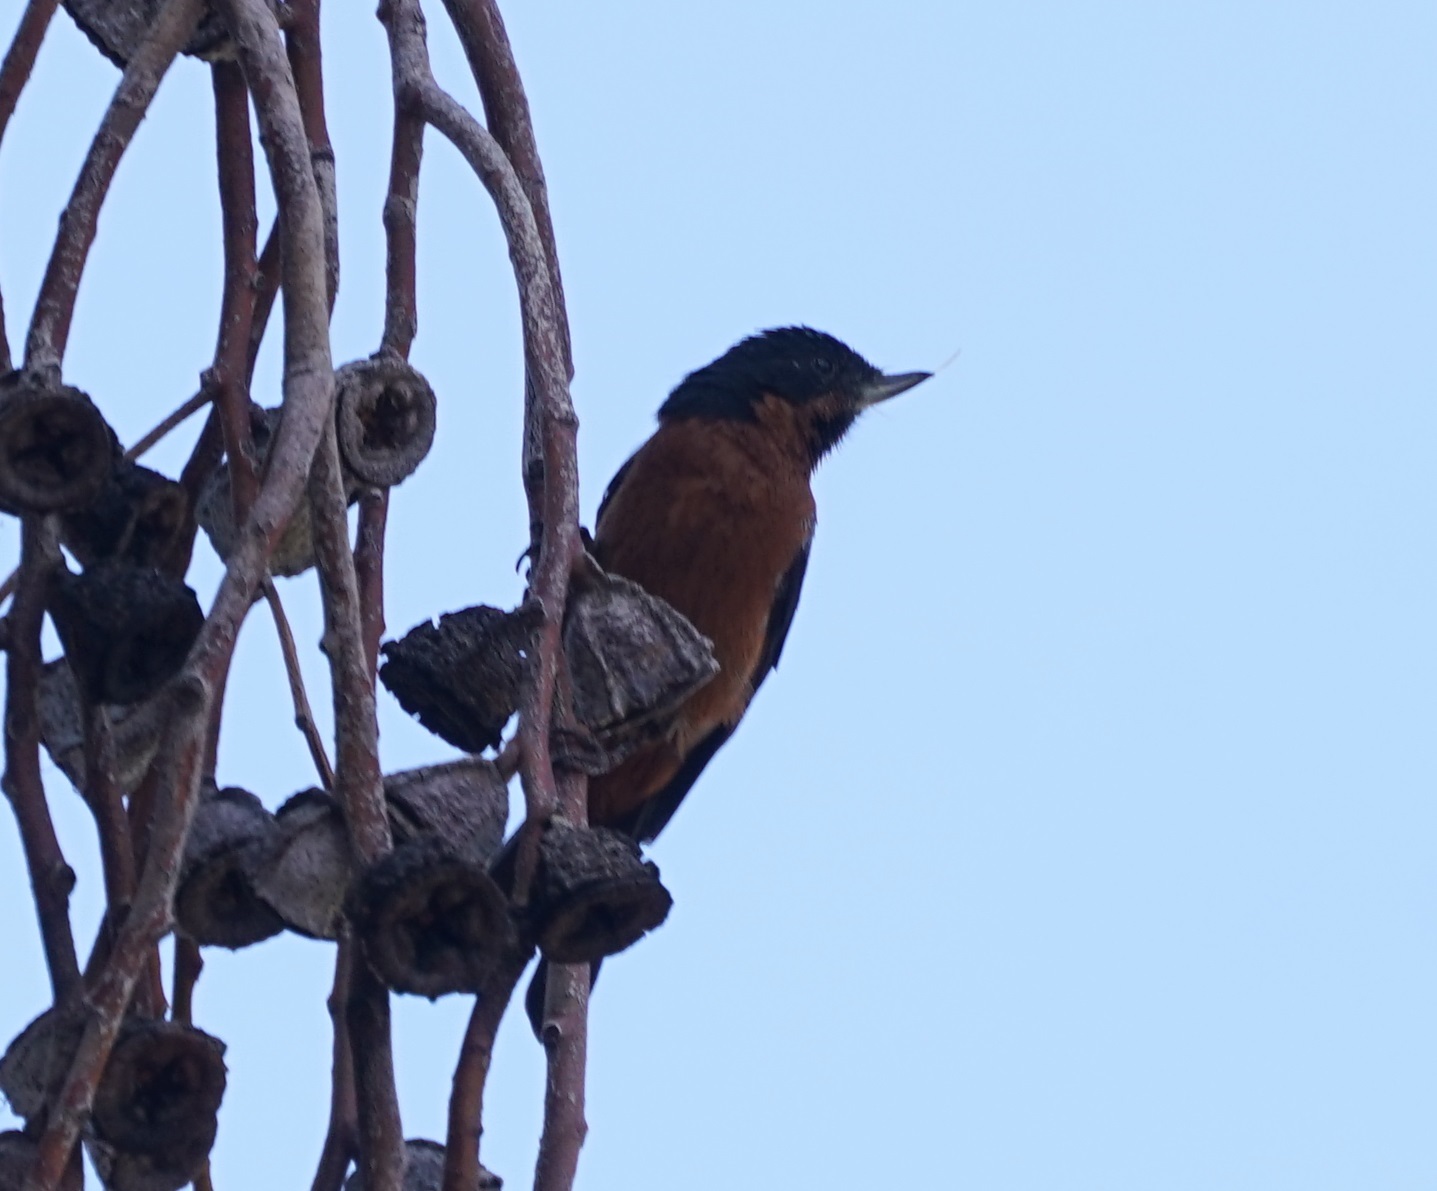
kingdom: Animalia
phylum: Chordata
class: Aves
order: Passeriformes
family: Thraupidae
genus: Diglossa
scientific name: Diglossa brunneiventris
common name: Black-throated flowerpiercer
